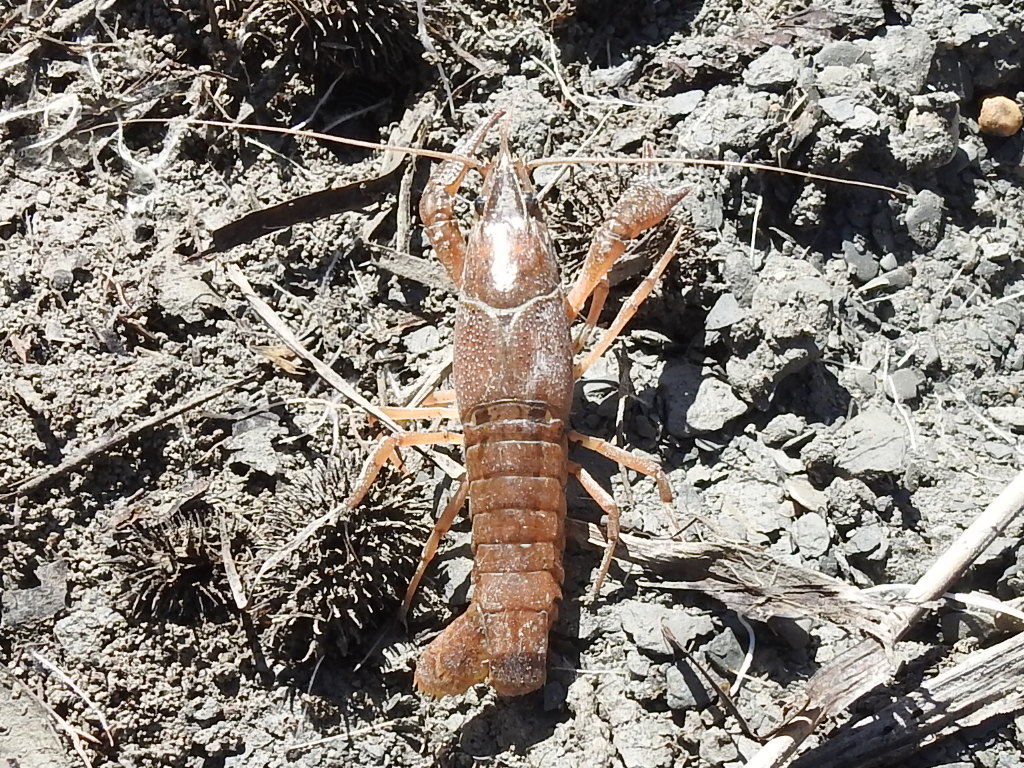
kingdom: Animalia
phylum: Arthropoda
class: Malacostraca
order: Decapoda
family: Cambaridae
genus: Procambarus
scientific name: Procambarus clarkii
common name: Red swamp crayfish
